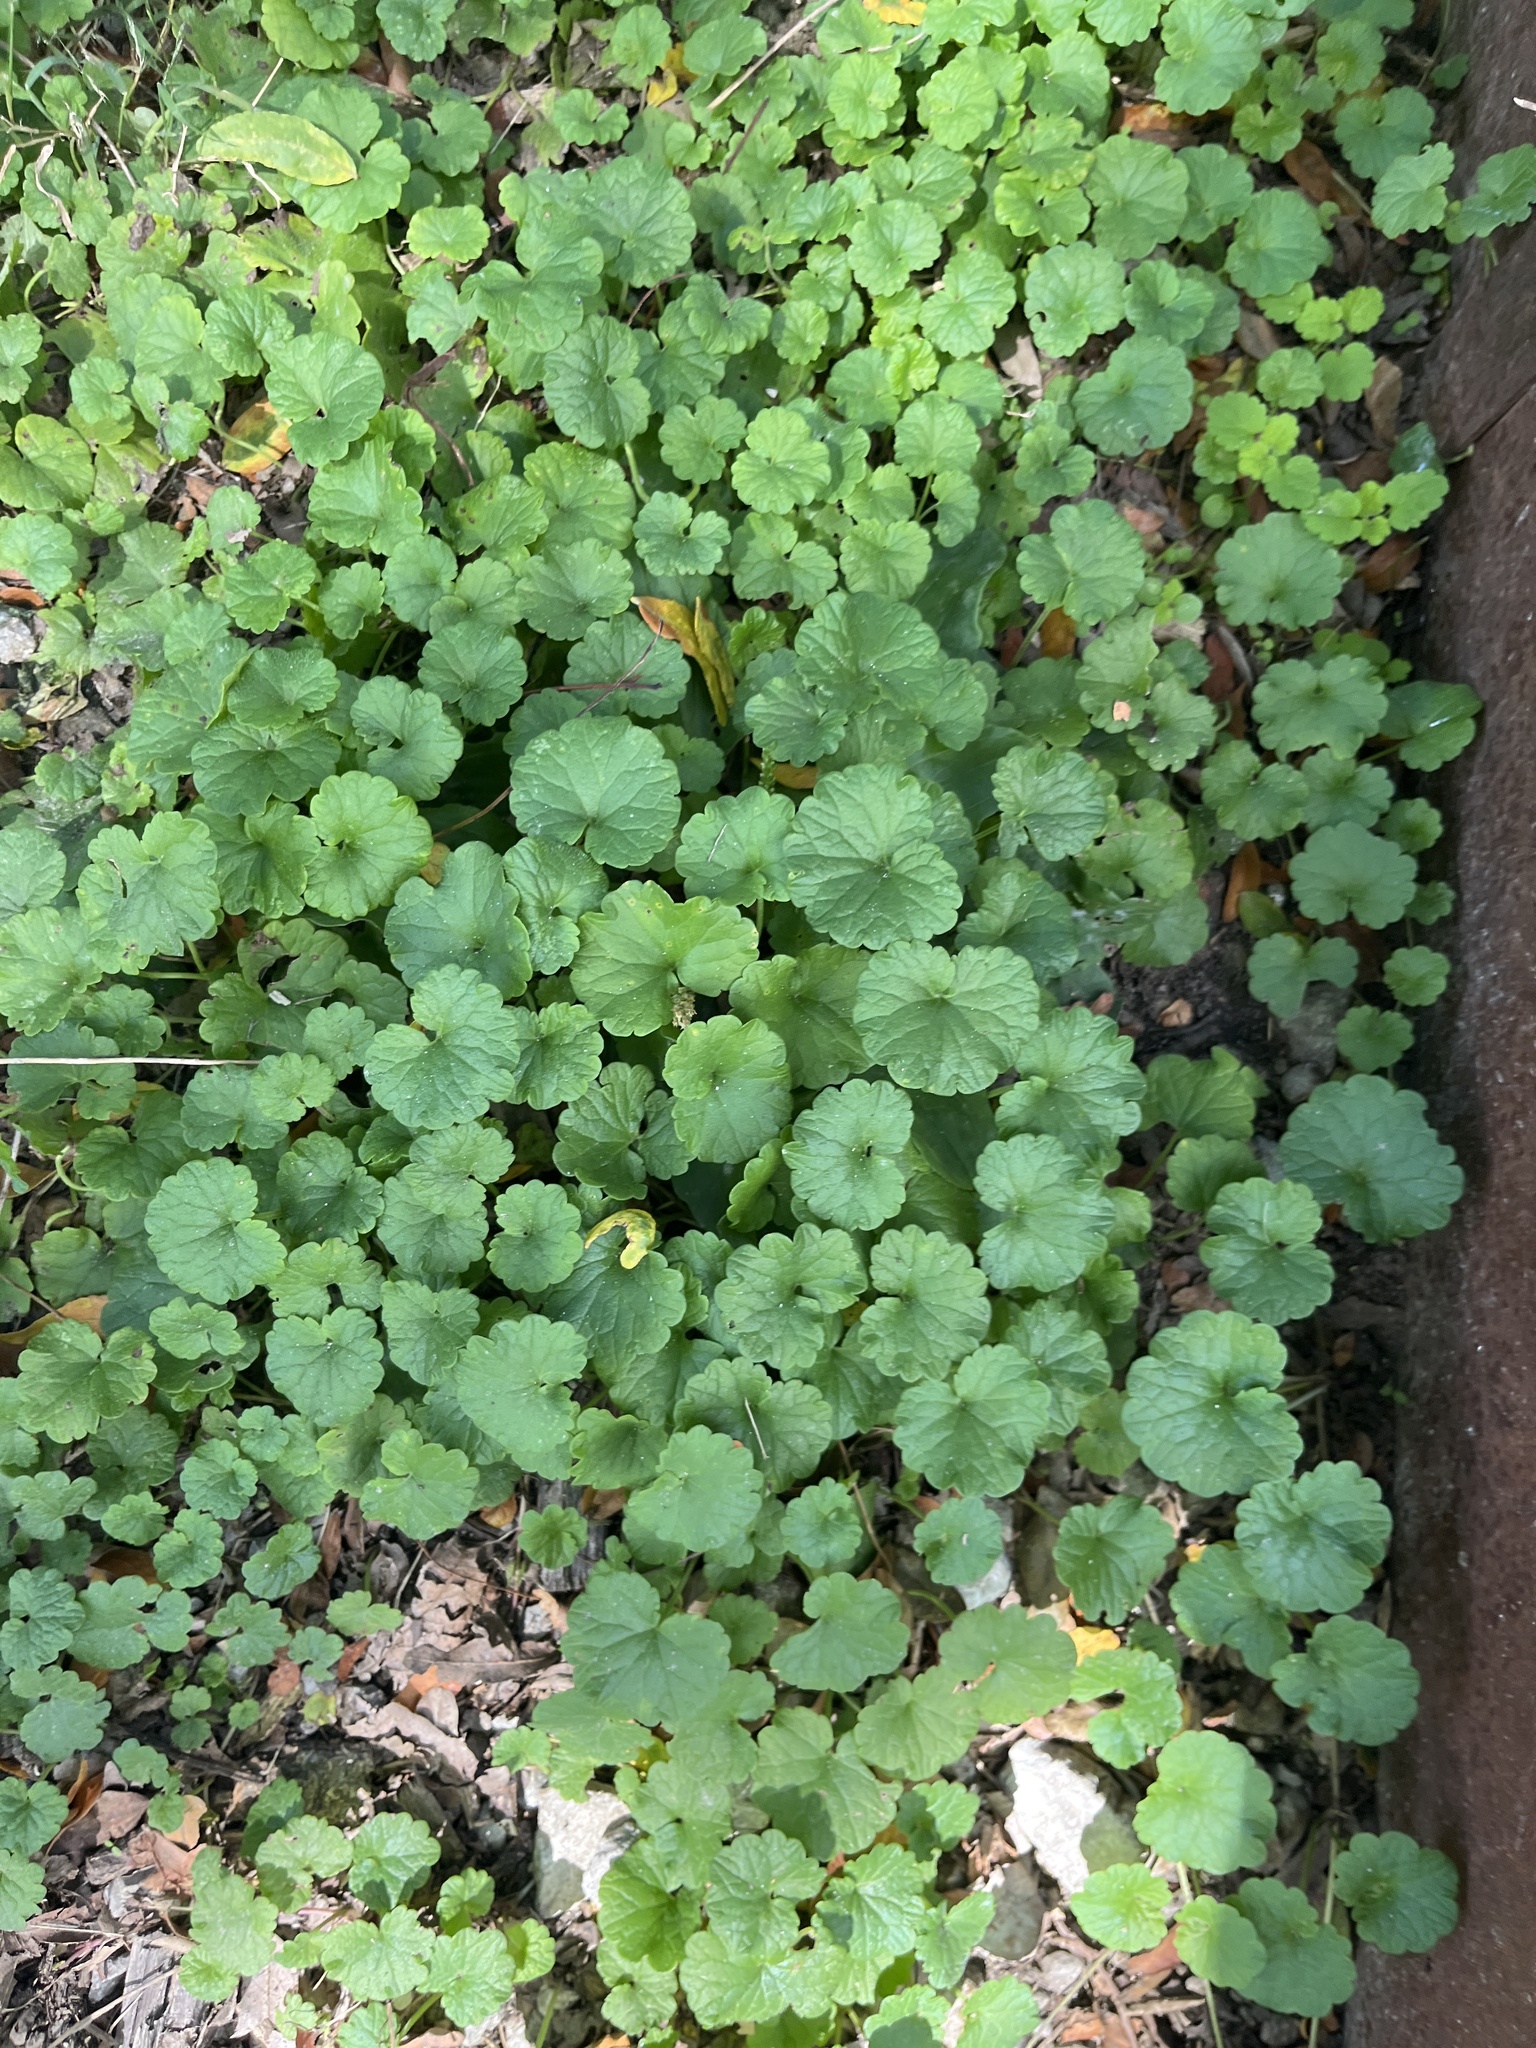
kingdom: Plantae
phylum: Tracheophyta
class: Magnoliopsida
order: Lamiales
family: Lamiaceae
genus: Glechoma
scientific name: Glechoma hederacea
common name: Ground ivy
